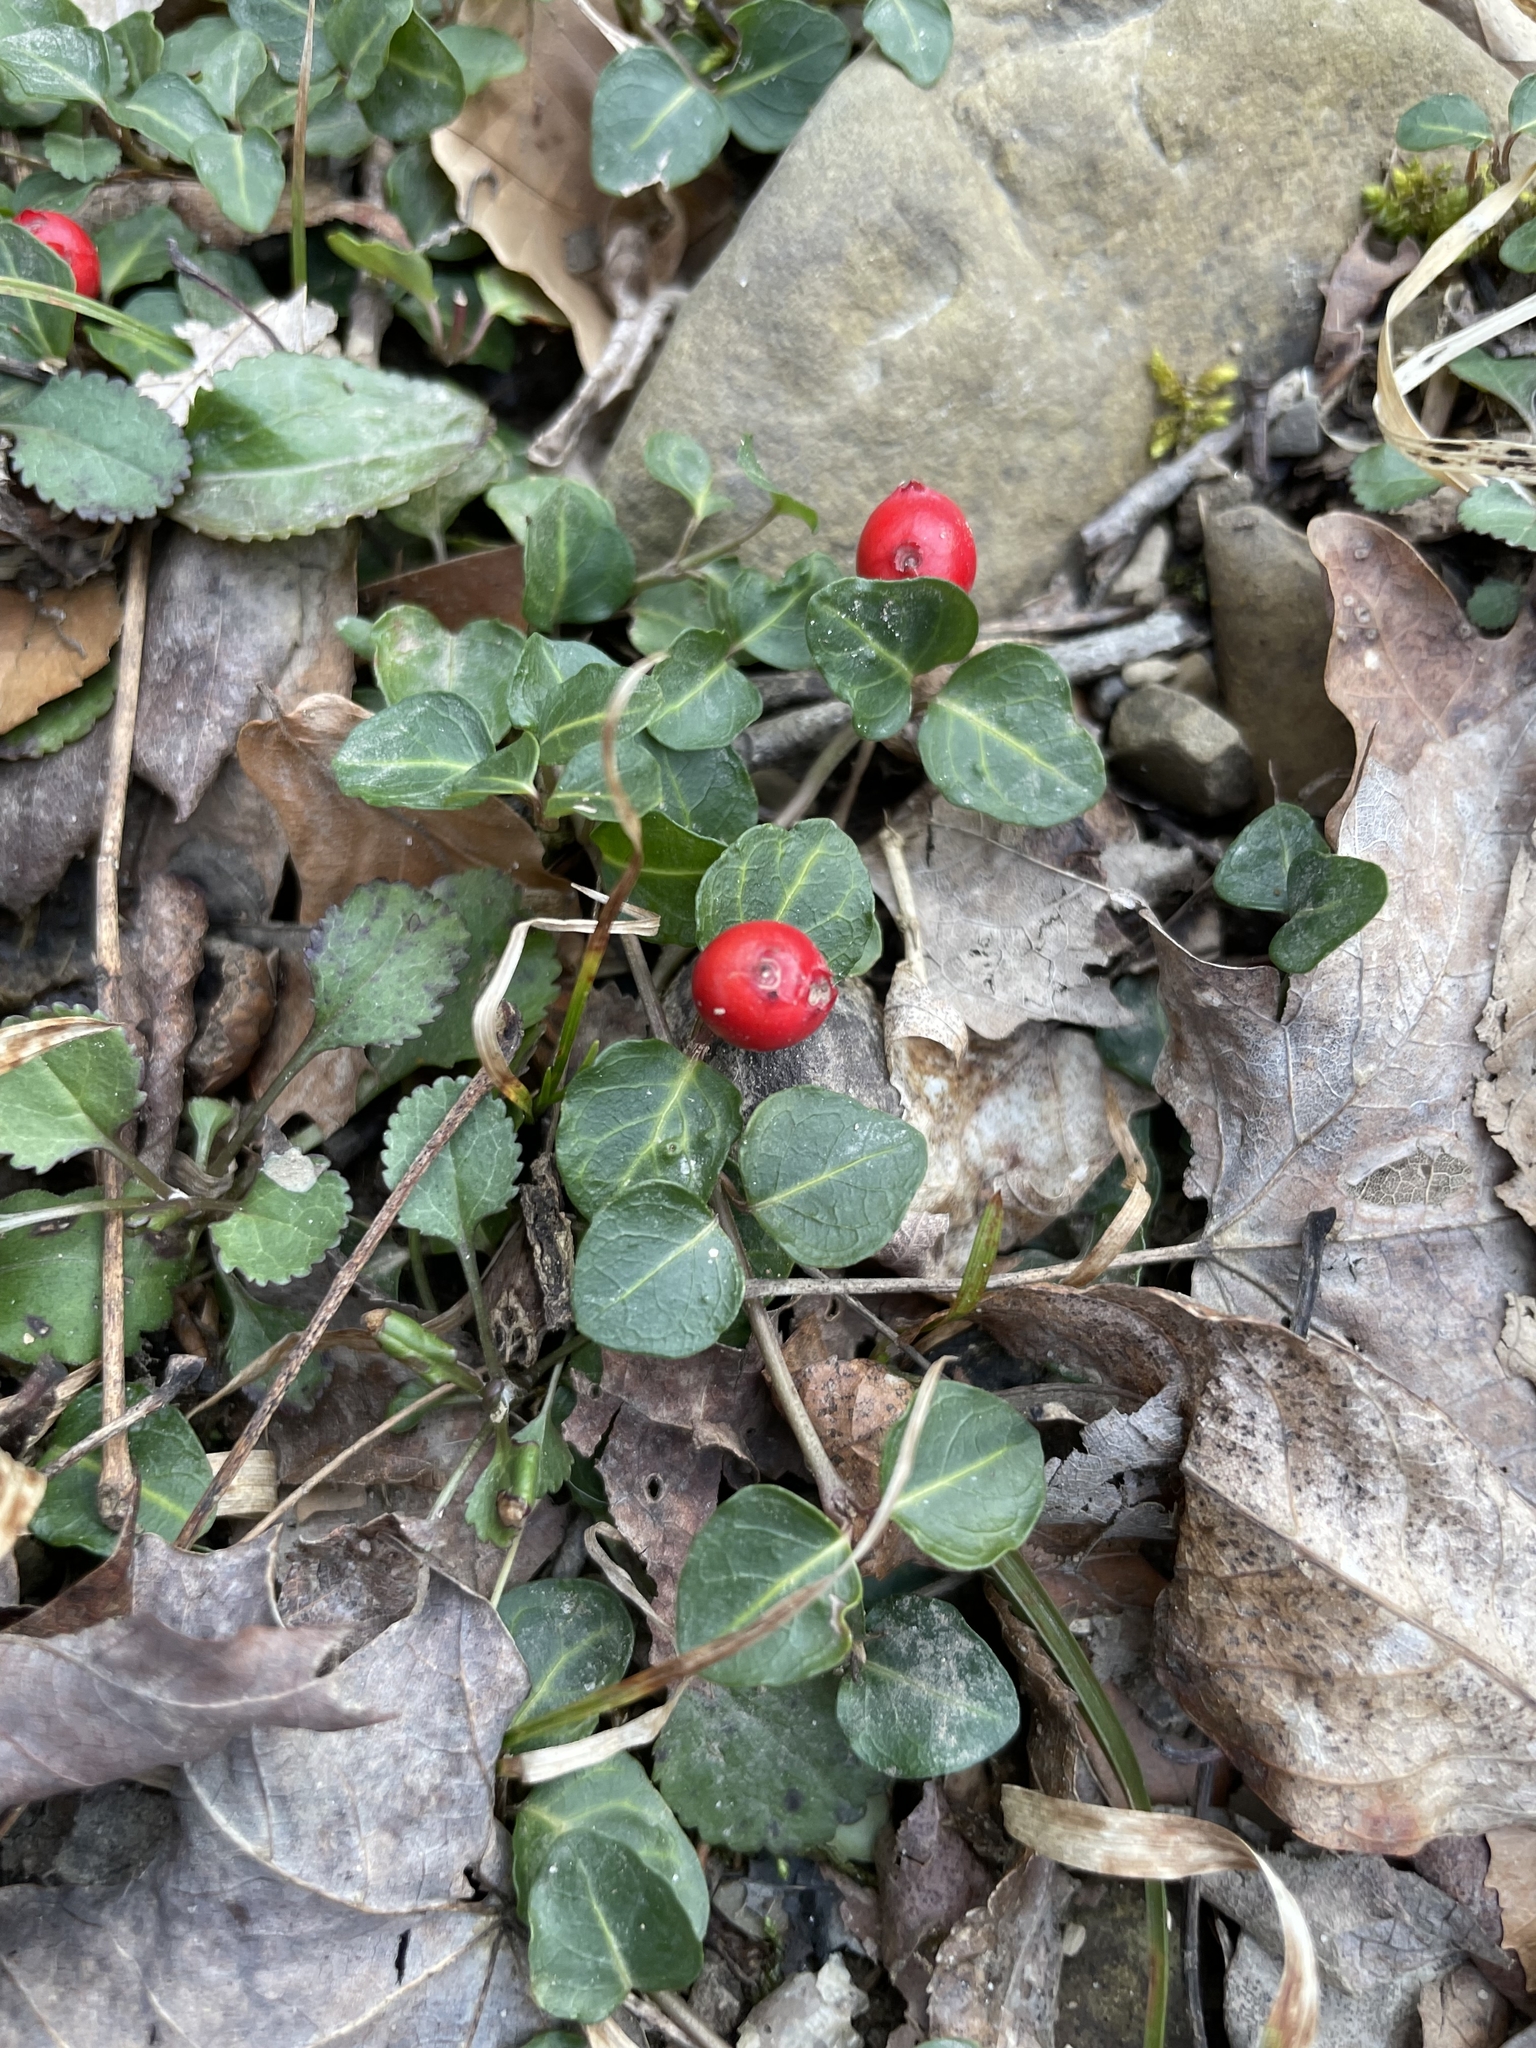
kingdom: Plantae
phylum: Tracheophyta
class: Magnoliopsida
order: Gentianales
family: Rubiaceae
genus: Mitchella
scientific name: Mitchella repens
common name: Partridge-berry
